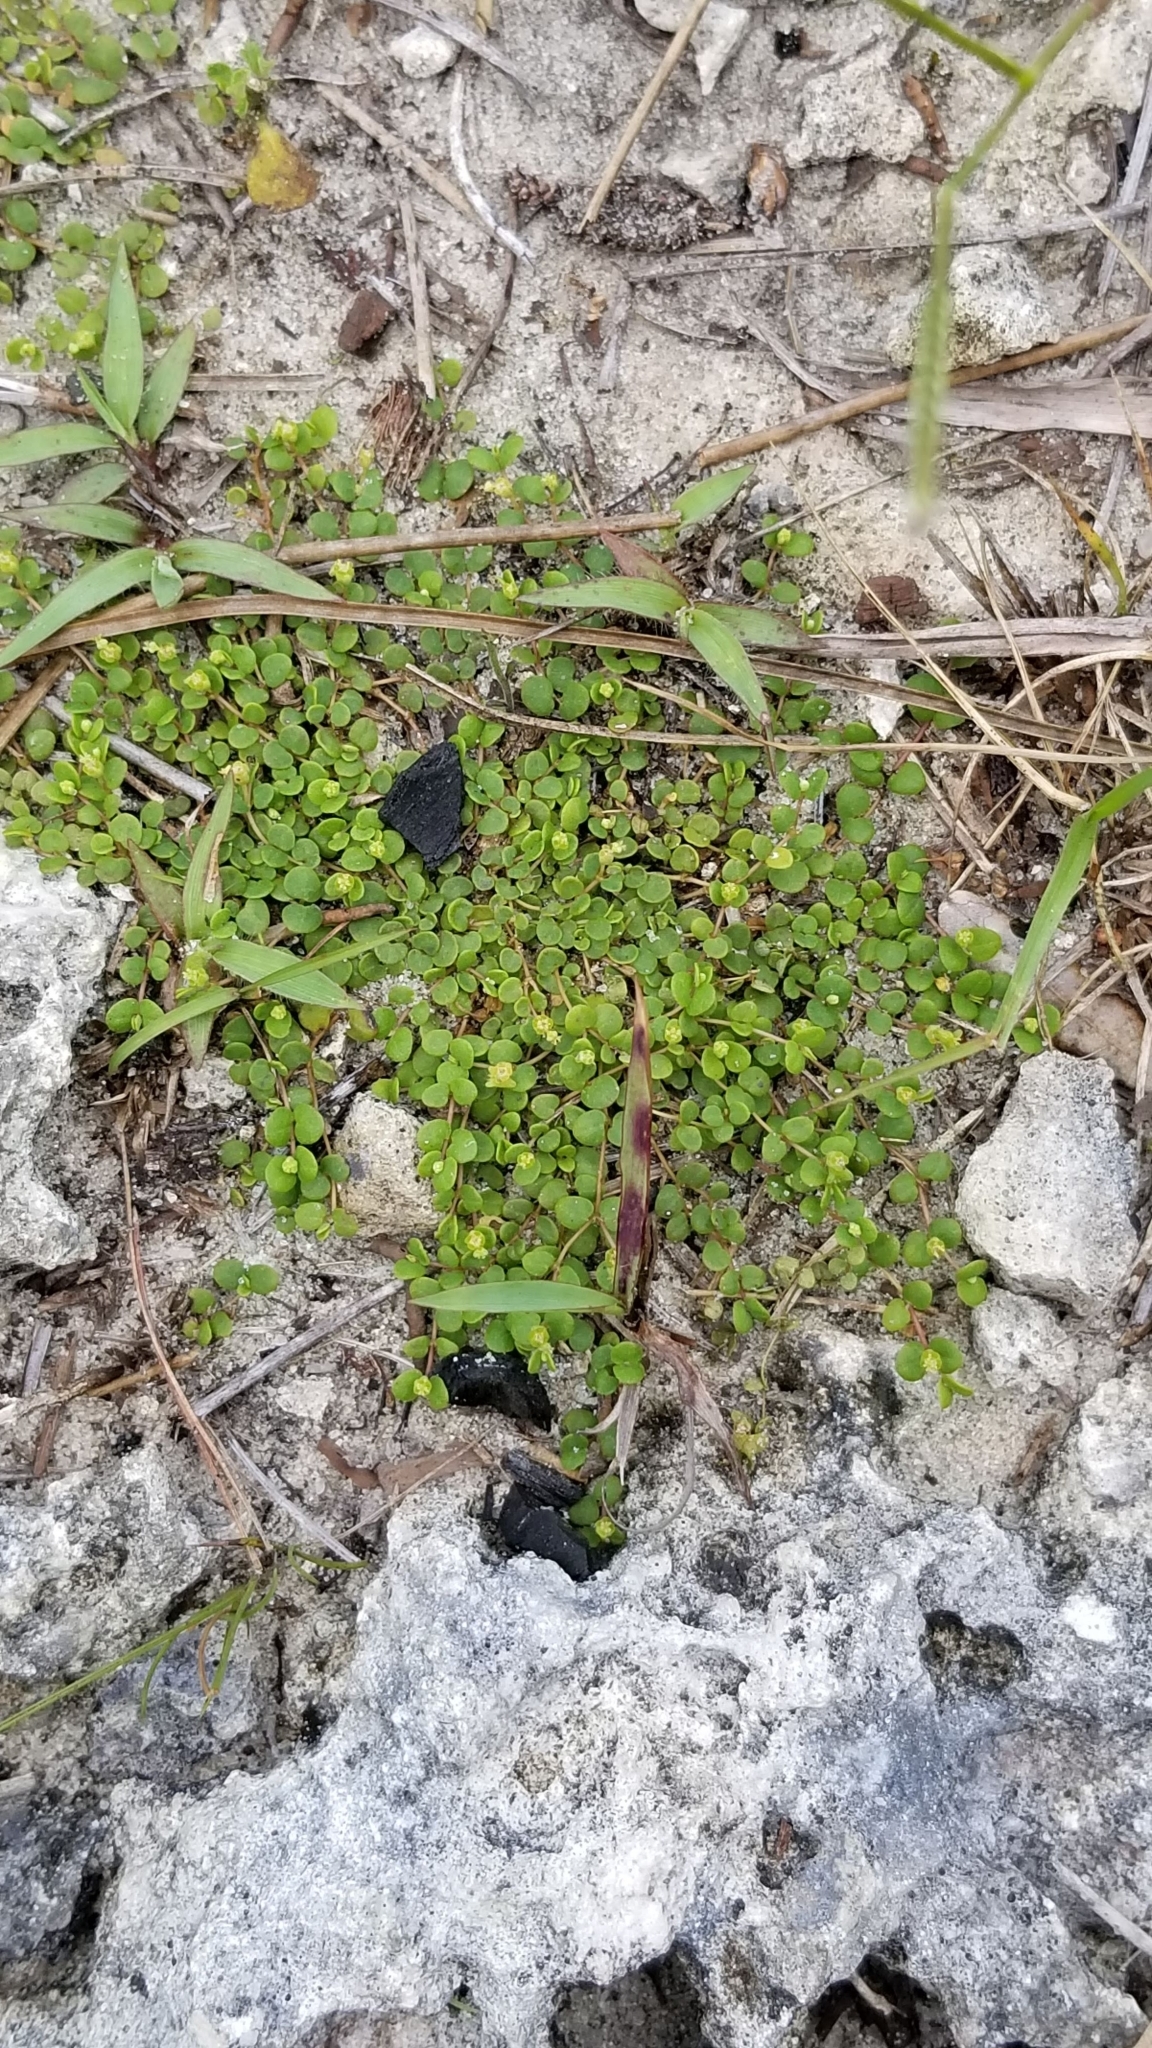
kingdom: Plantae
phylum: Tracheophyta
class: Magnoliopsida
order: Malpighiales
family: Euphorbiaceae
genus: Euphorbia
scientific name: Euphorbia deltoidea
